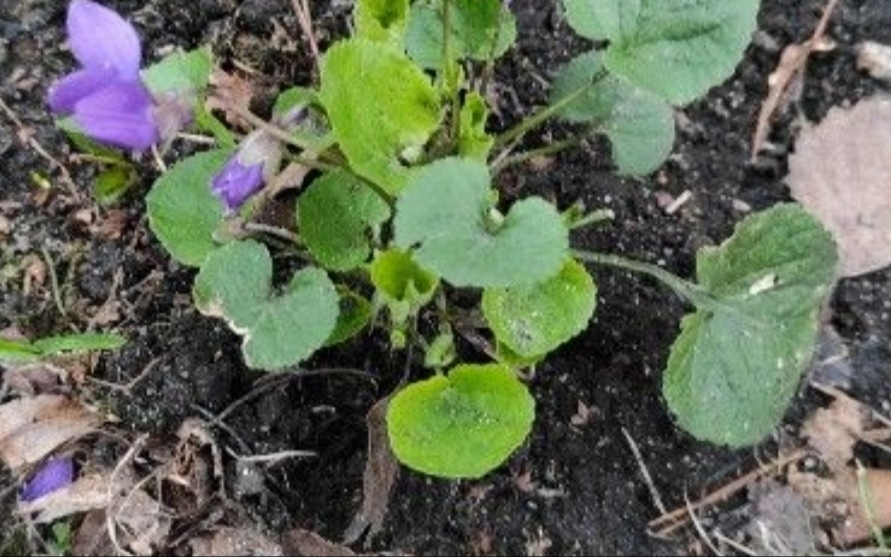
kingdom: Plantae
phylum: Tracheophyta
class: Magnoliopsida
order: Malpighiales
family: Violaceae
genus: Viola
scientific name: Viola odorata
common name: Sweet violet
